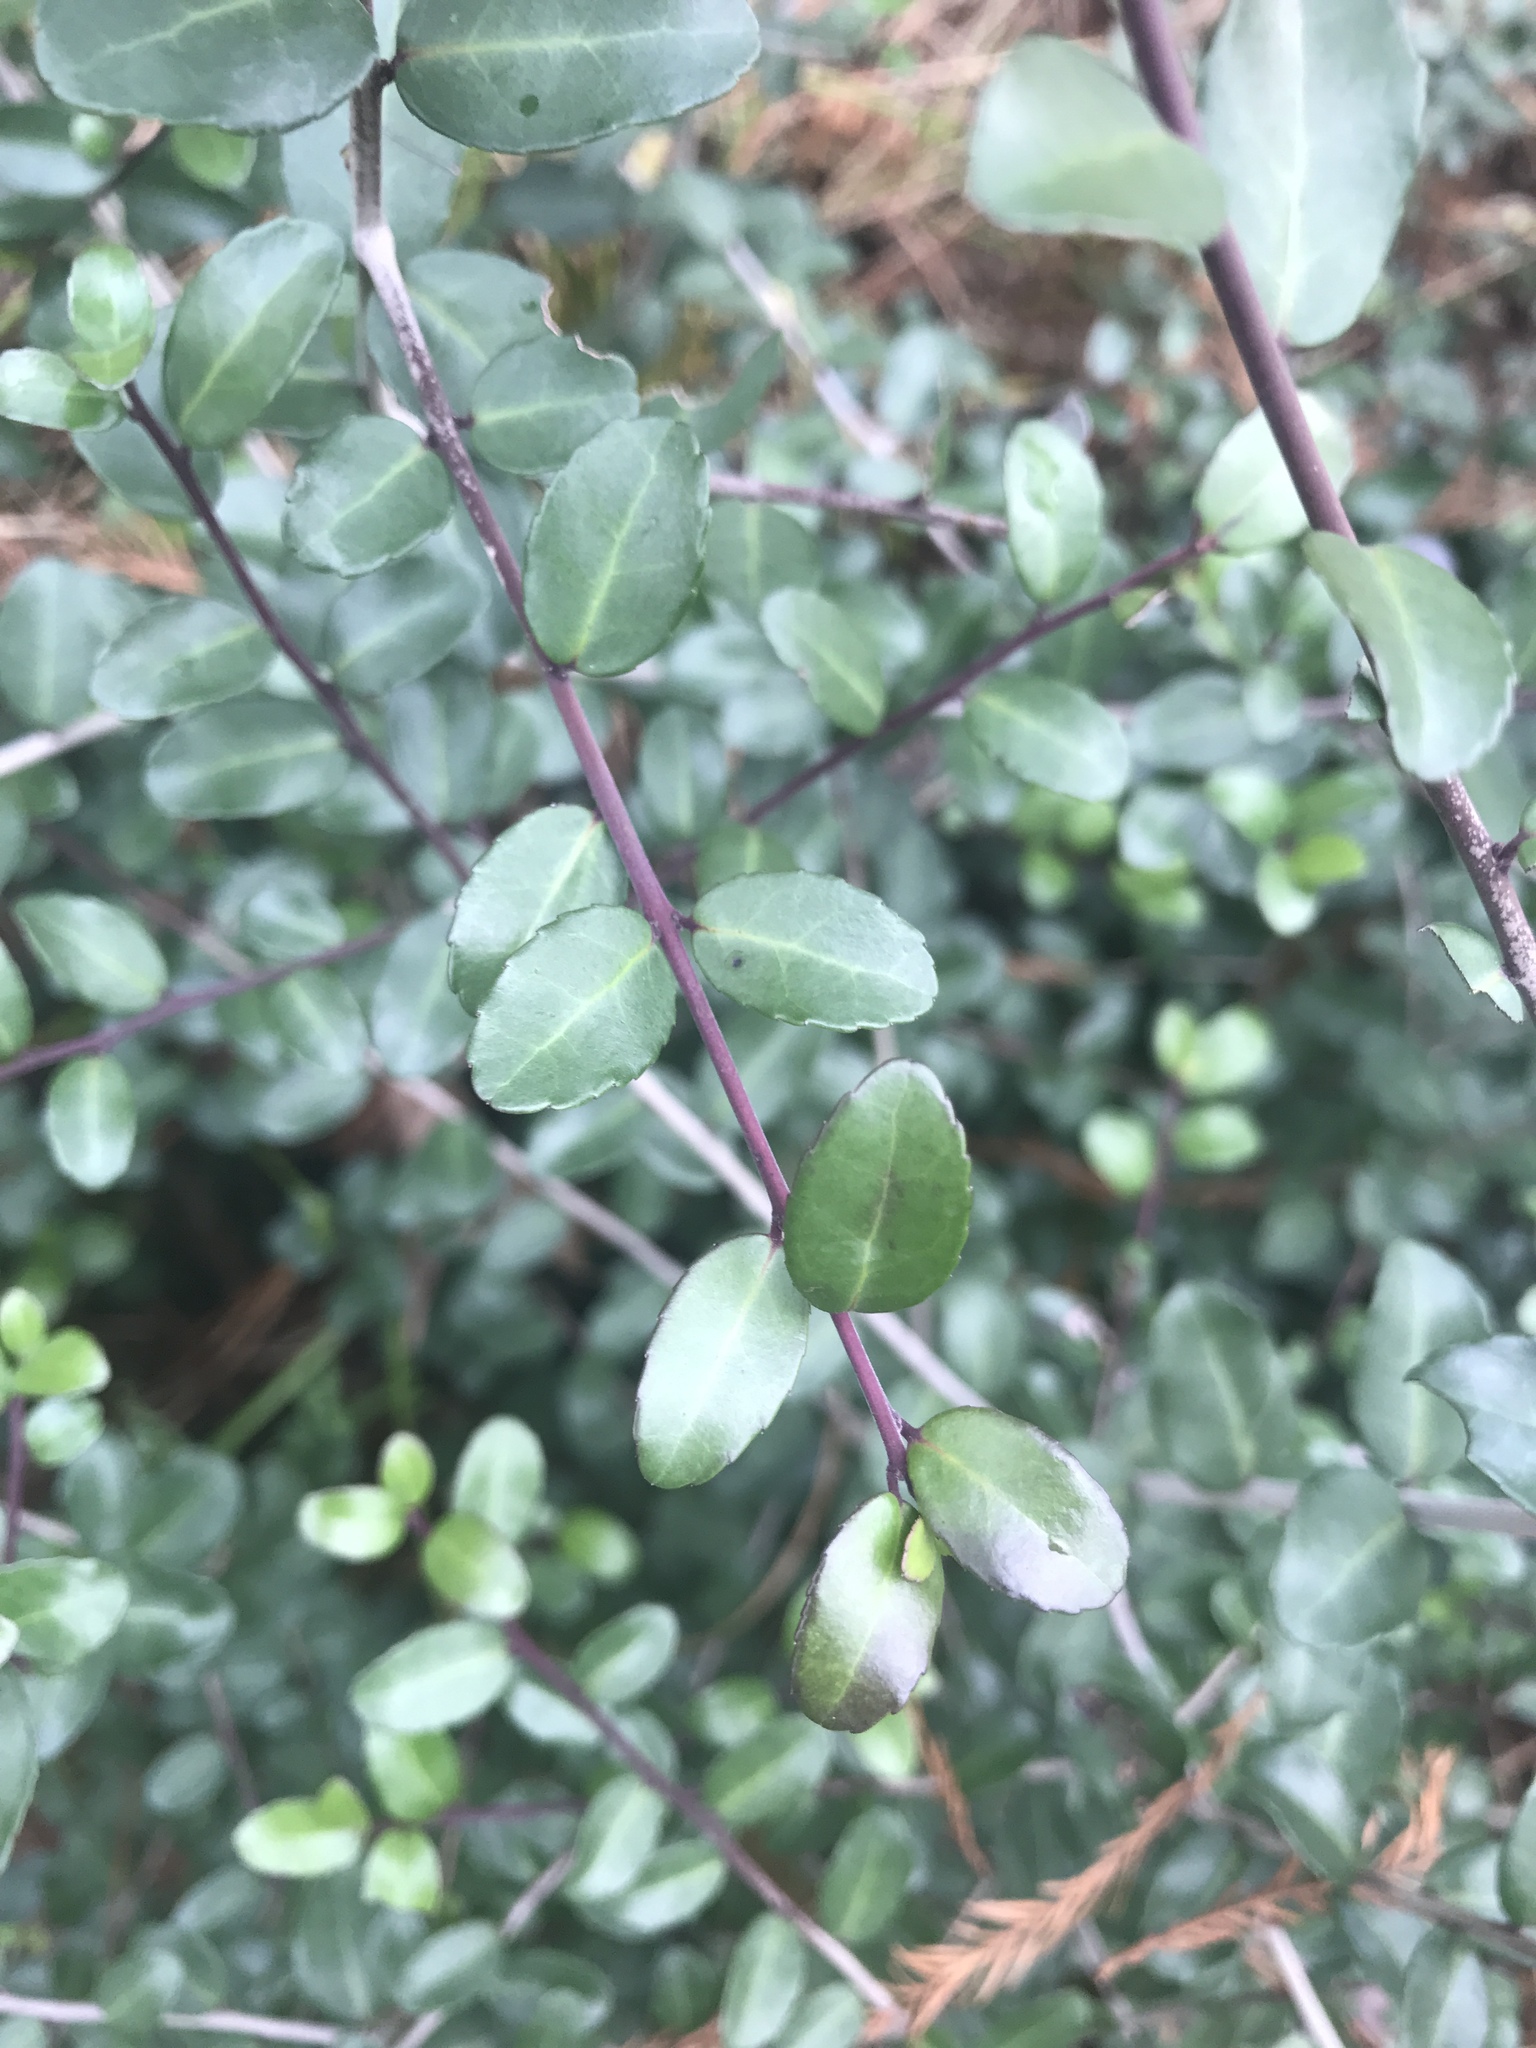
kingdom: Plantae
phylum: Tracheophyta
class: Magnoliopsida
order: Aquifoliales
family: Aquifoliaceae
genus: Ilex
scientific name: Ilex vomitoria
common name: Yaupon holly
